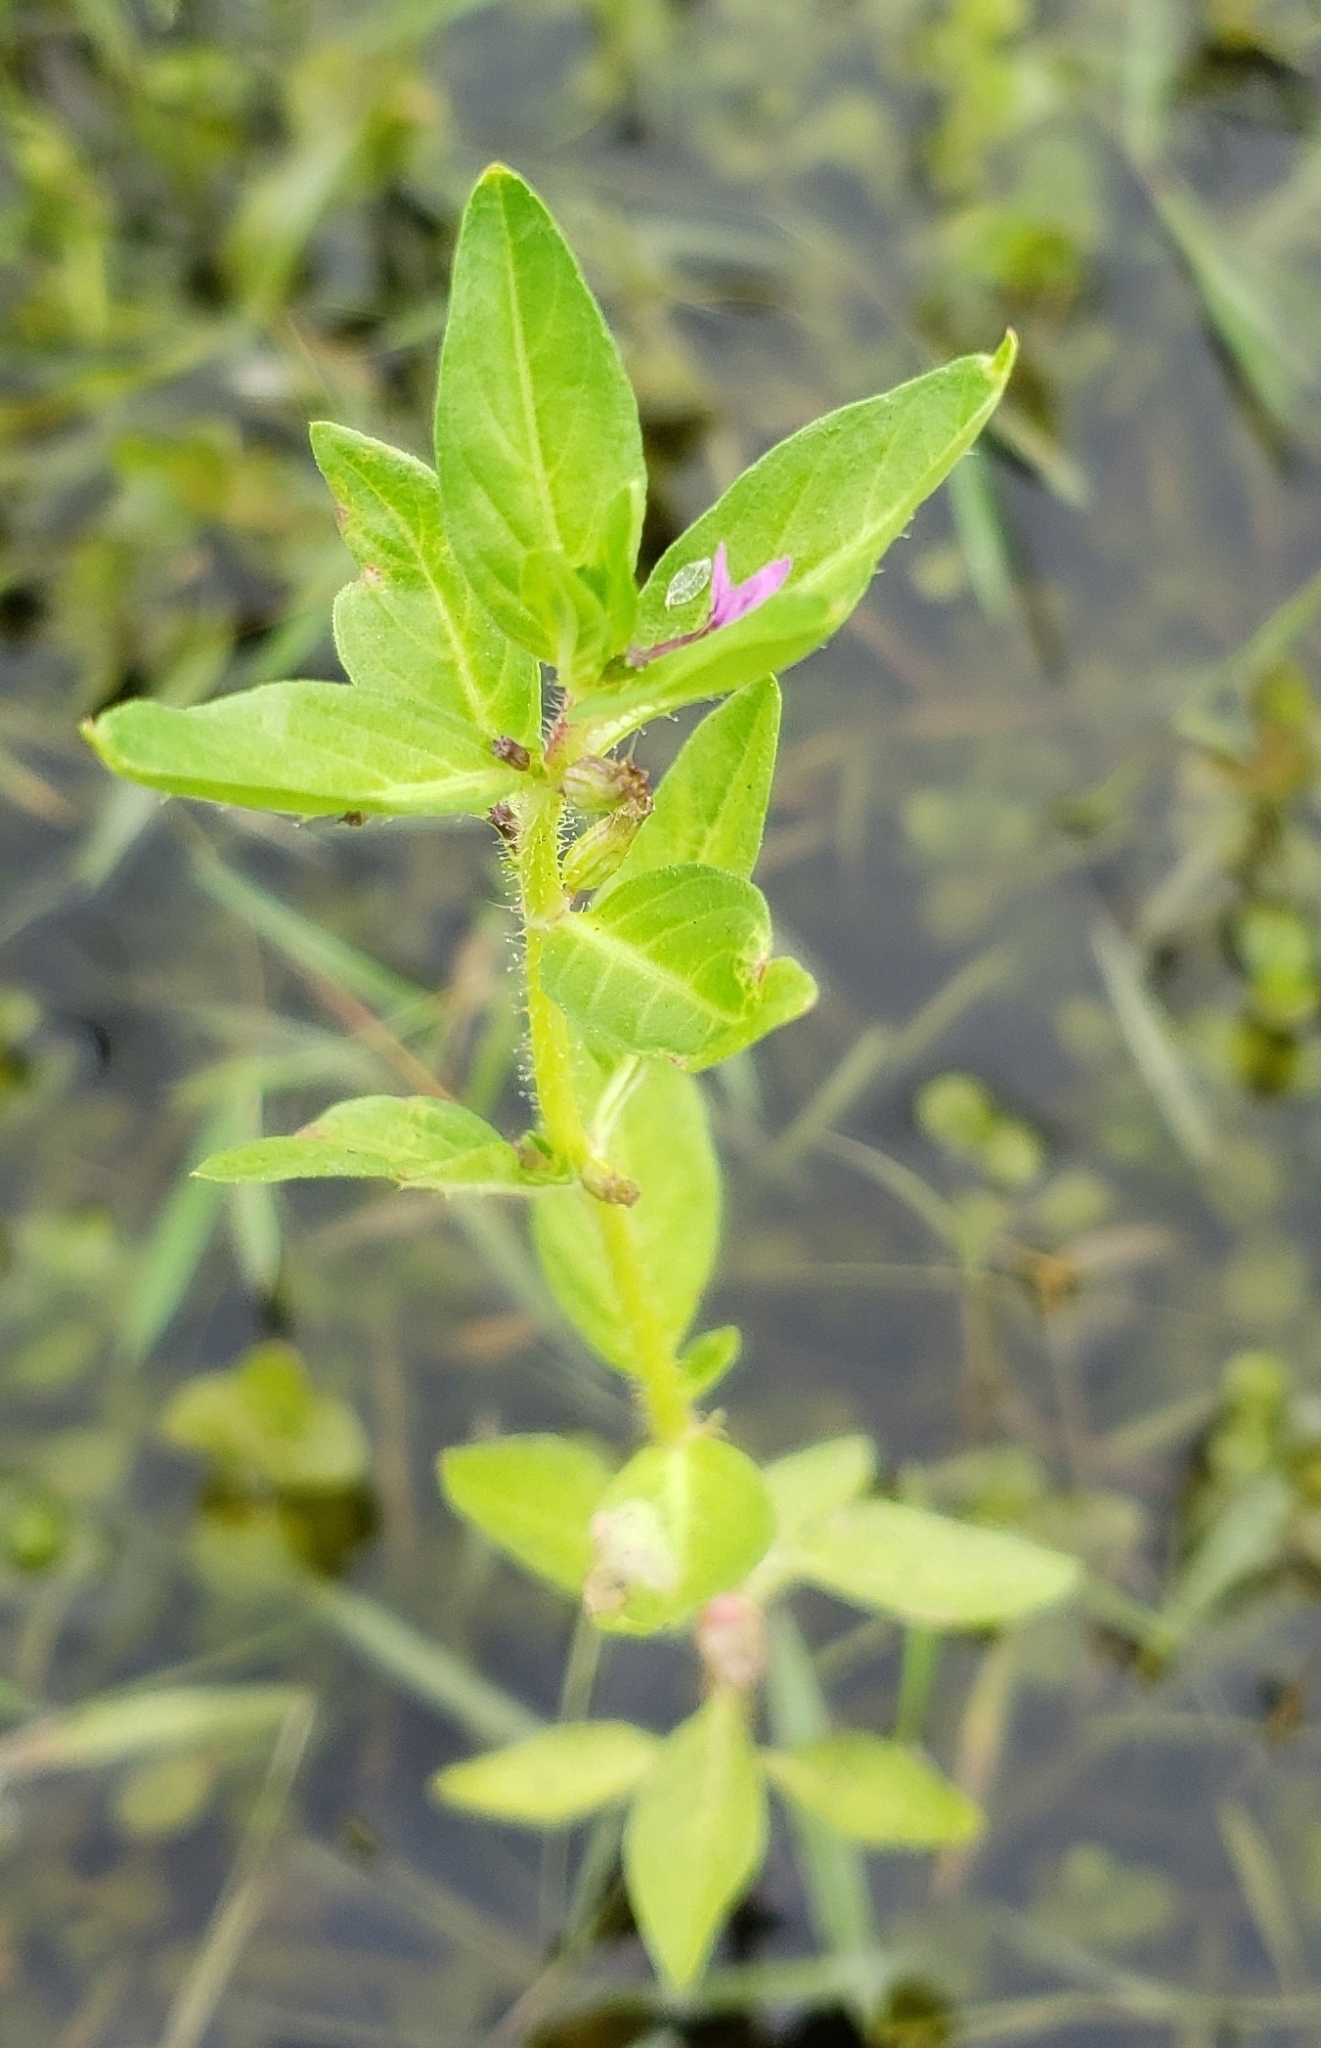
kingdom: Plantae
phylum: Tracheophyta
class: Magnoliopsida
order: Myrtales
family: Lythraceae
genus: Cuphea
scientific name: Cuphea carthagenensis
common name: Colombian waxweed
